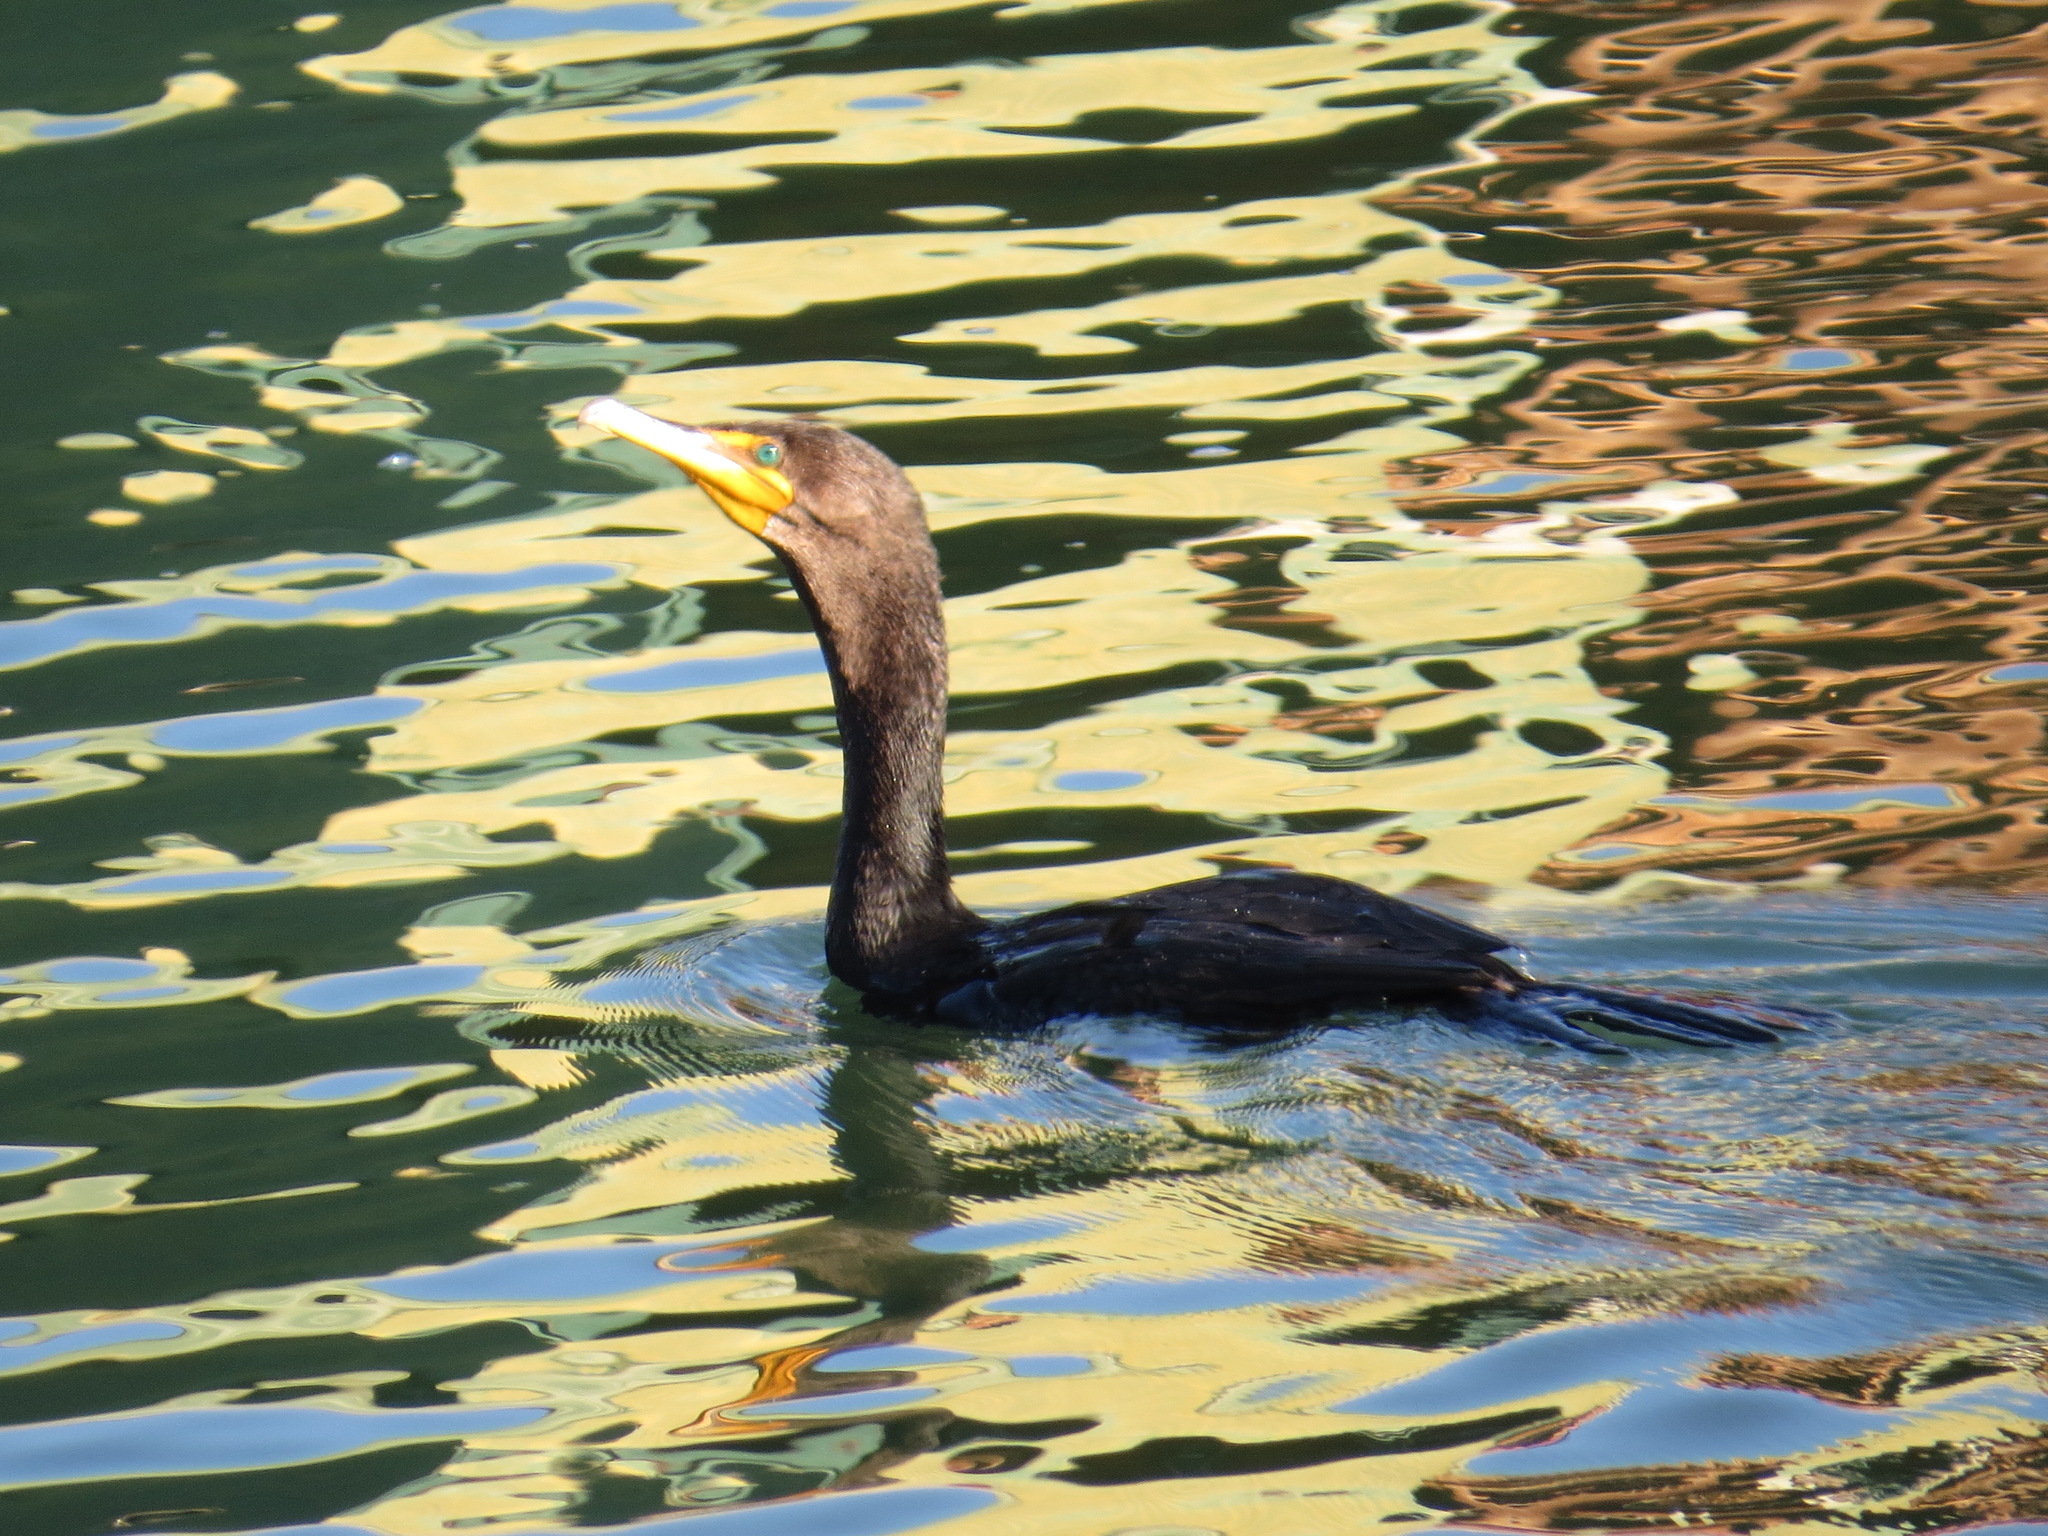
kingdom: Animalia
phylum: Chordata
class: Aves
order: Suliformes
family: Phalacrocoracidae
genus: Phalacrocorax
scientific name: Phalacrocorax auritus
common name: Double-crested cormorant
